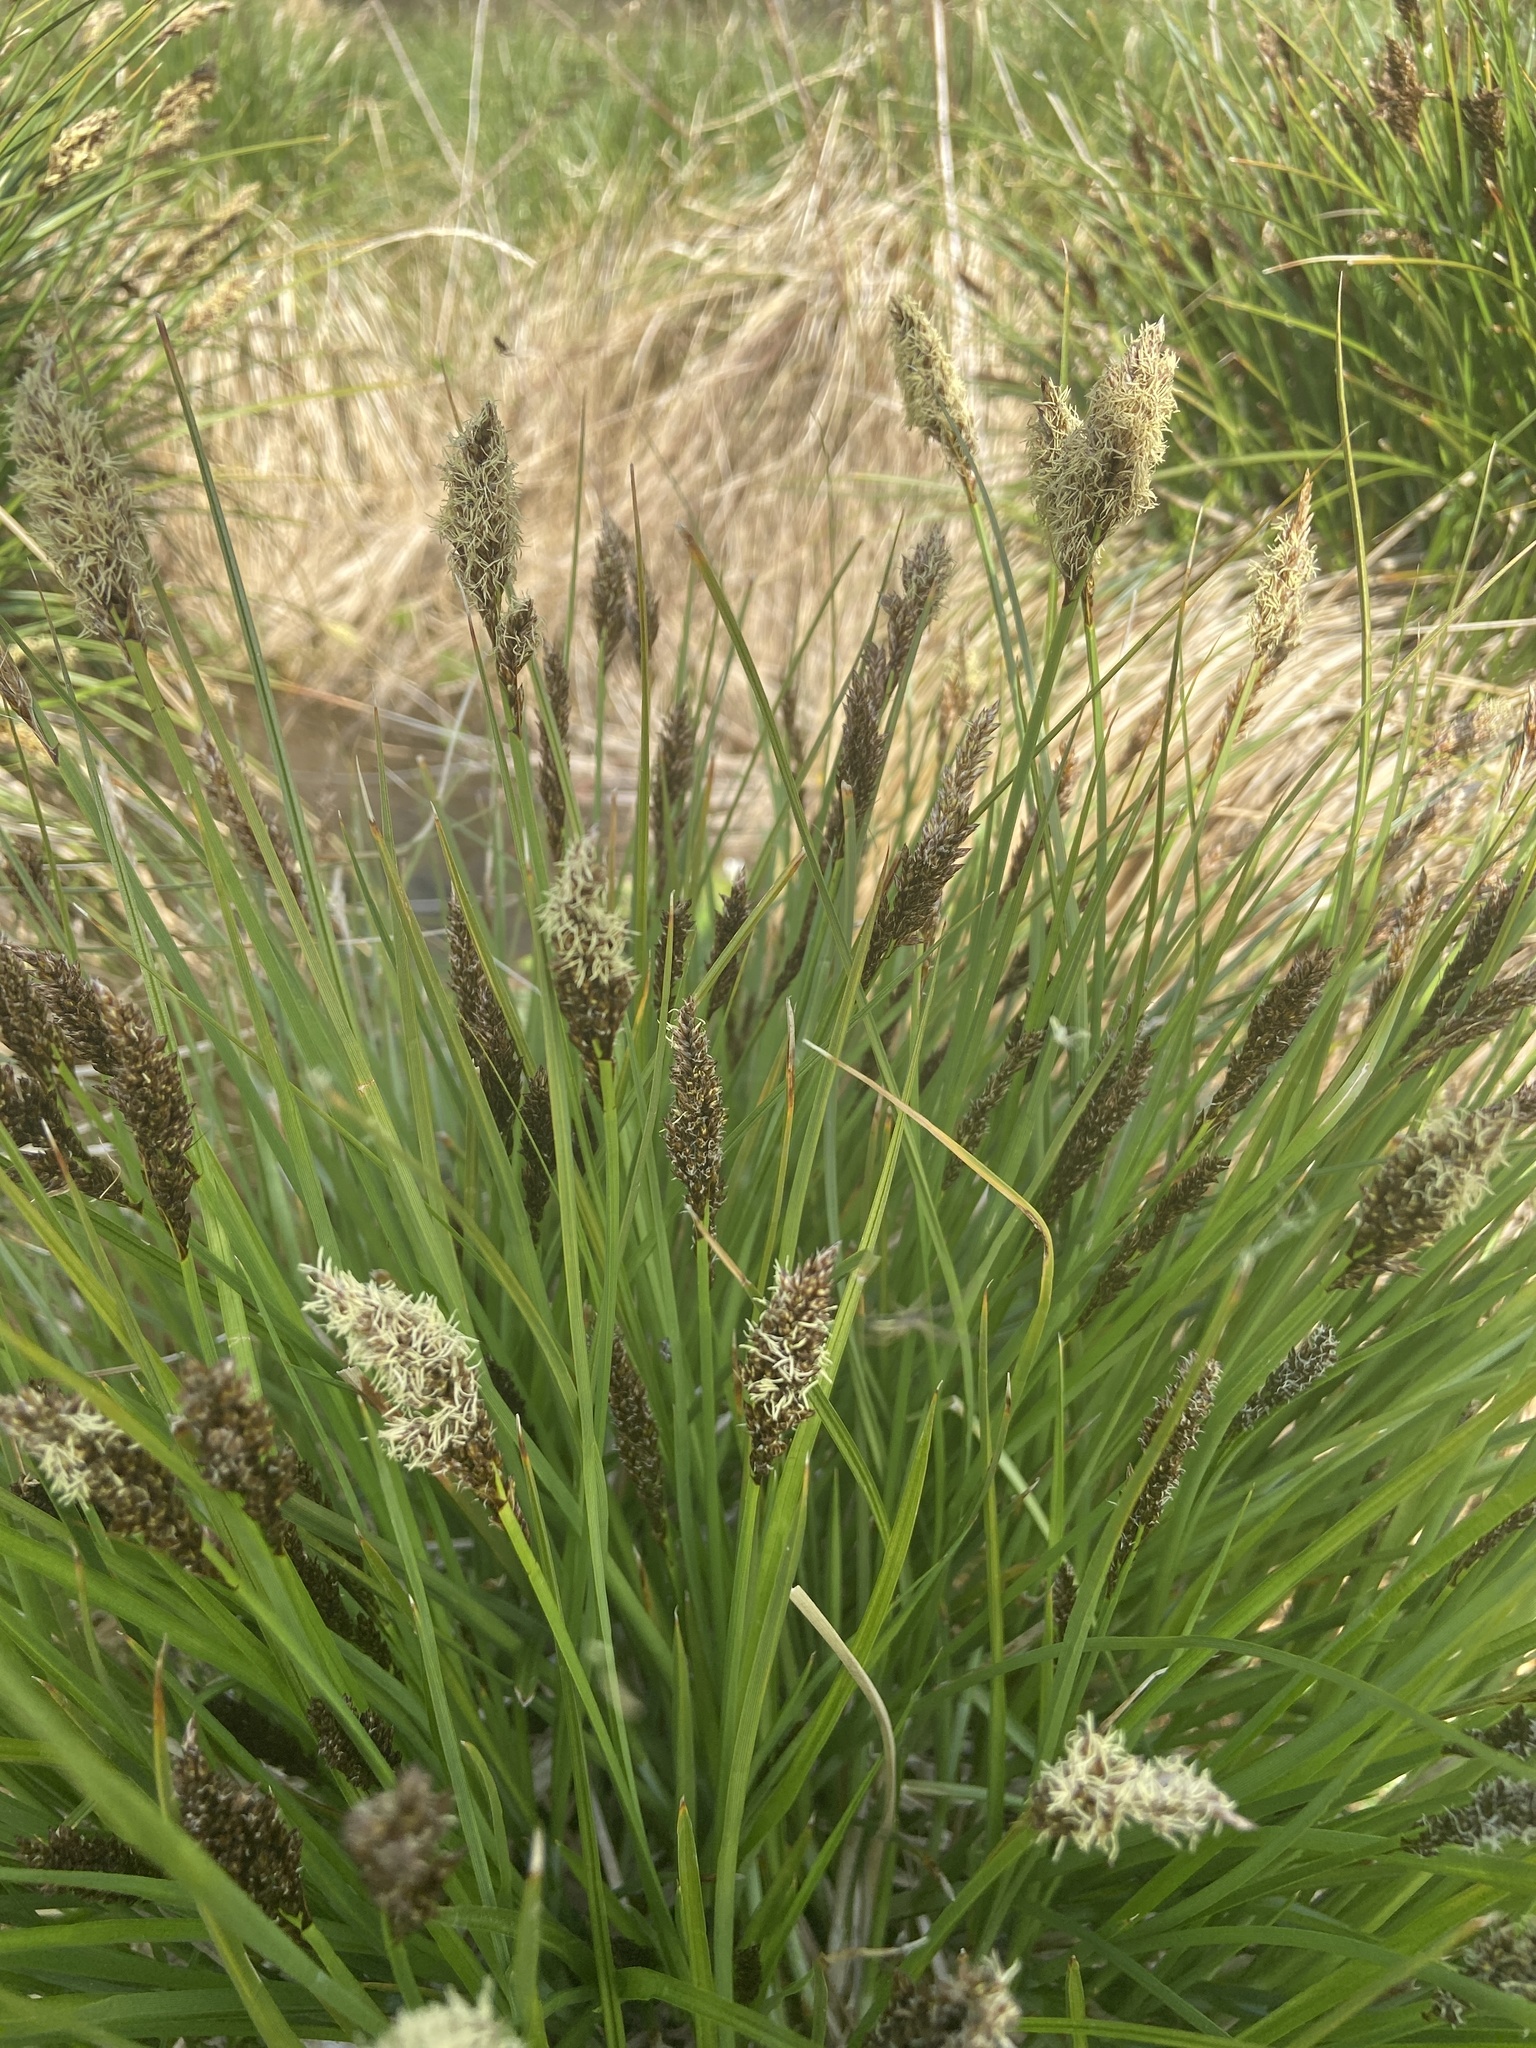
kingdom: Plantae
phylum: Tracheophyta
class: Liliopsida
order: Poales
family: Cyperaceae
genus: Carex
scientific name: Carex paniculata
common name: Greater tussock-sedge
